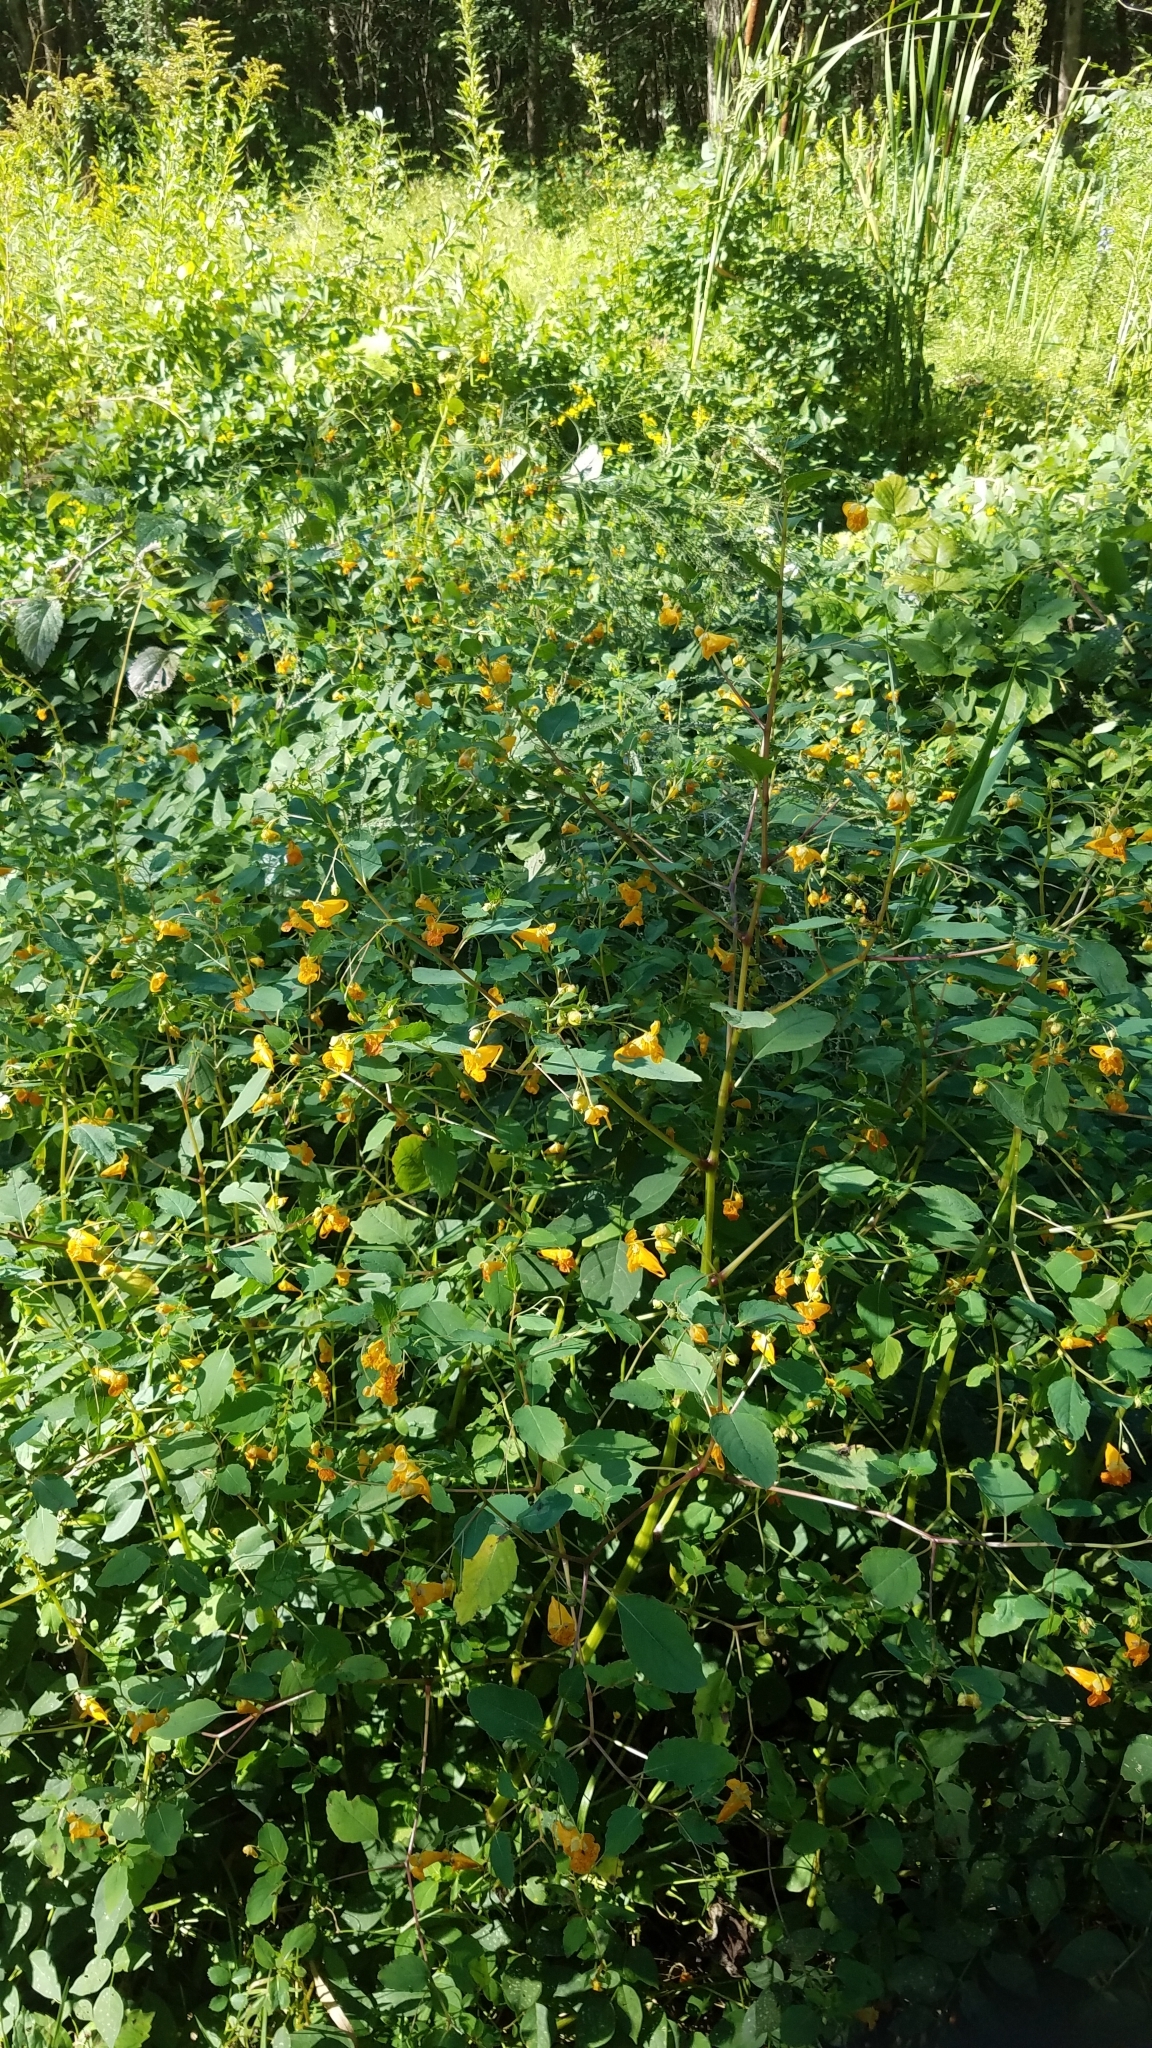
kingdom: Plantae
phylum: Tracheophyta
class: Magnoliopsida
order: Ericales
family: Balsaminaceae
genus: Impatiens
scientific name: Impatiens capensis
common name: Orange balsam
